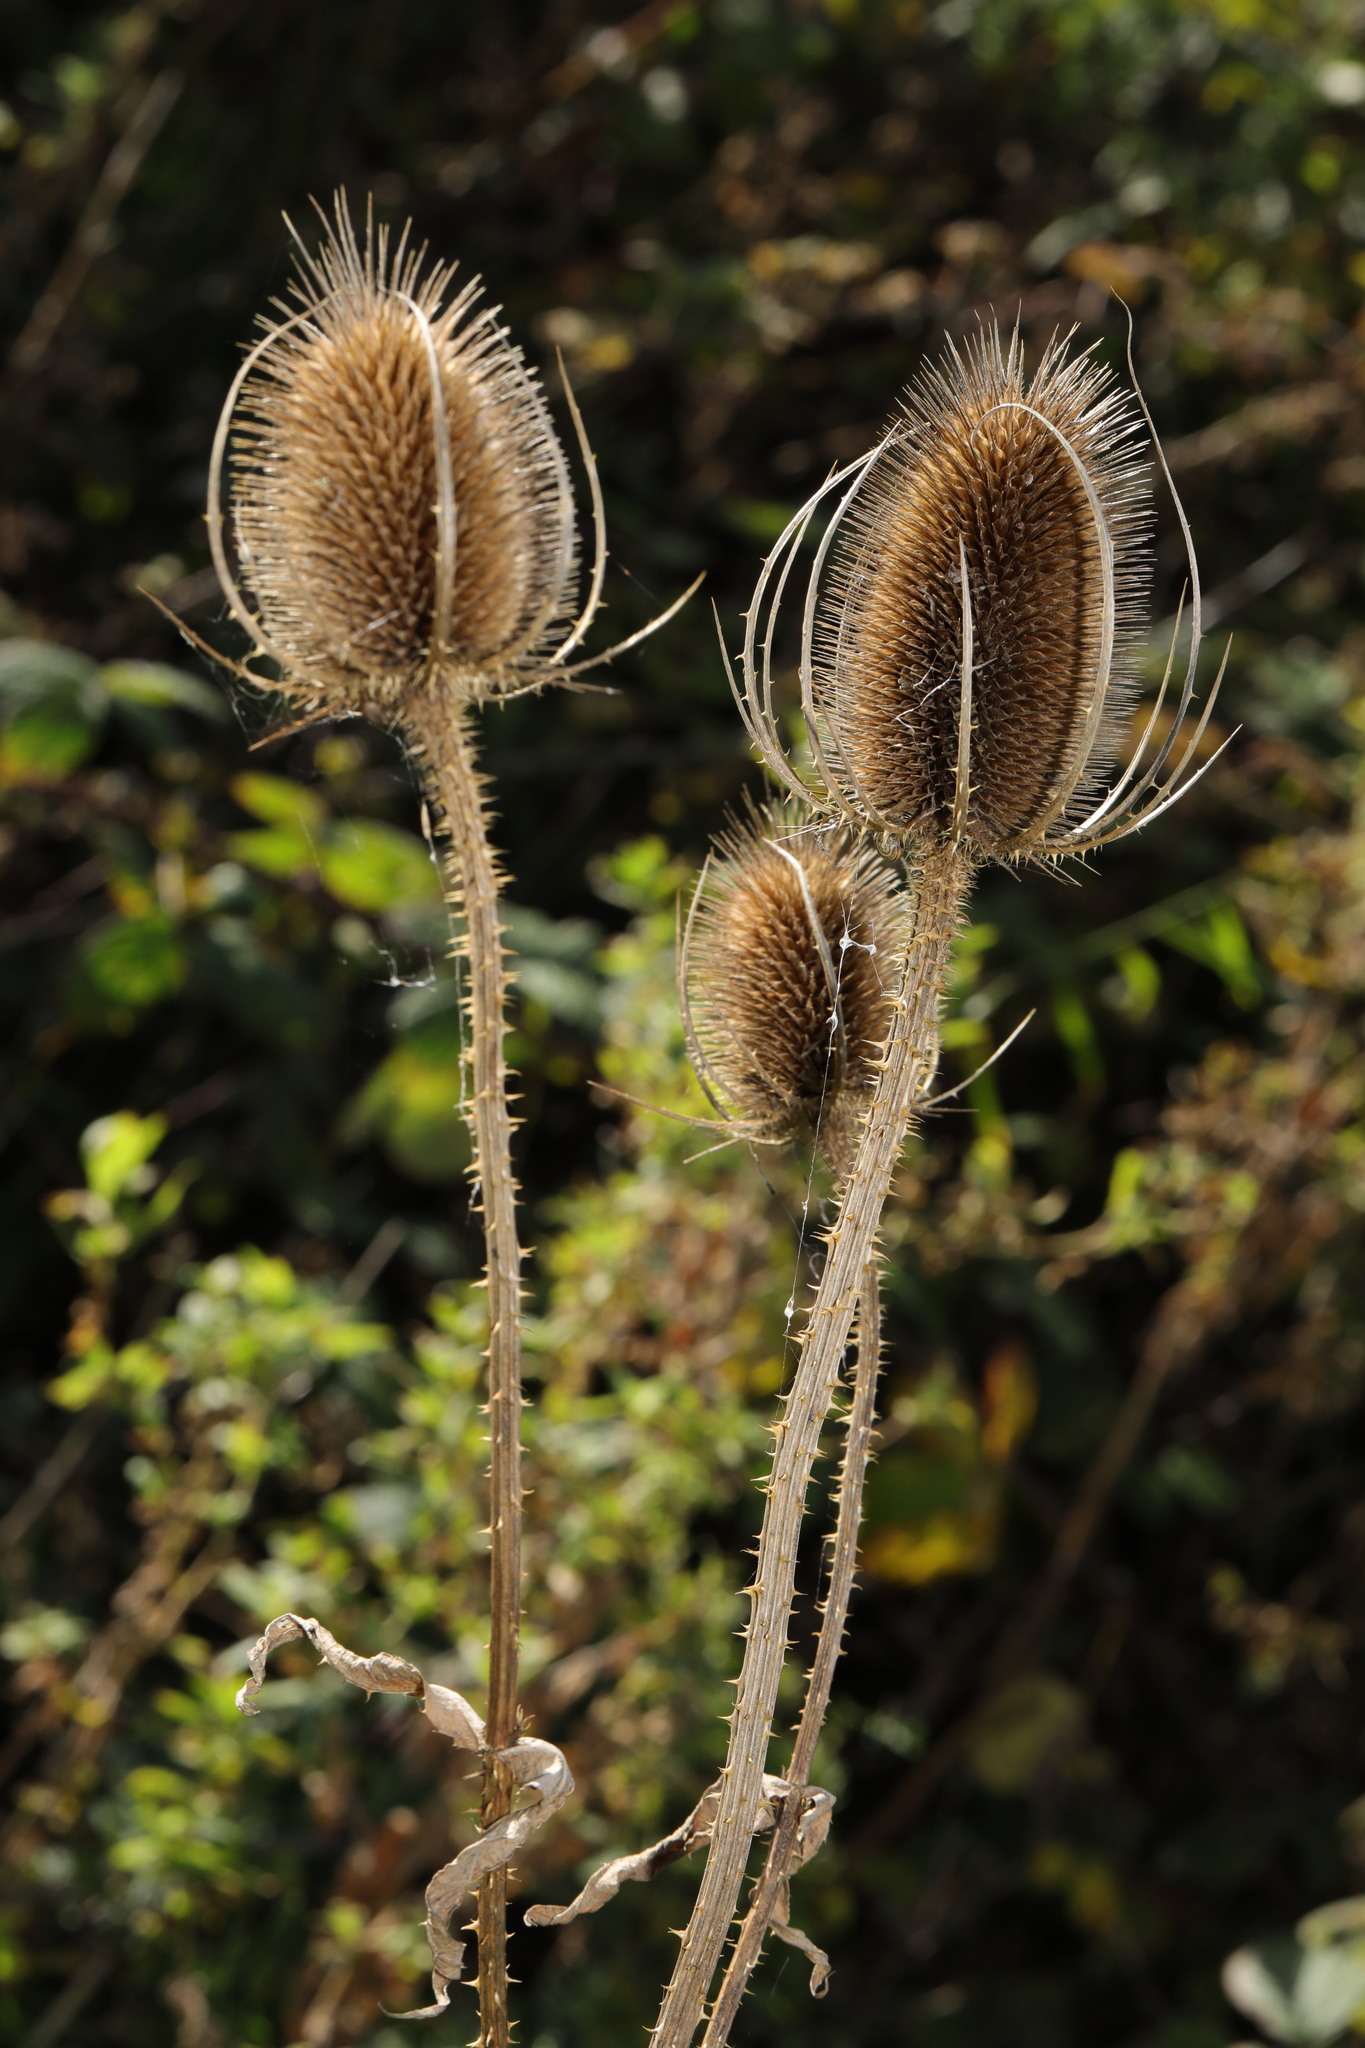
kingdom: Plantae
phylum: Tracheophyta
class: Magnoliopsida
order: Dipsacales
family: Caprifoliaceae
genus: Dipsacus
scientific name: Dipsacus fullonum
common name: Teasel
